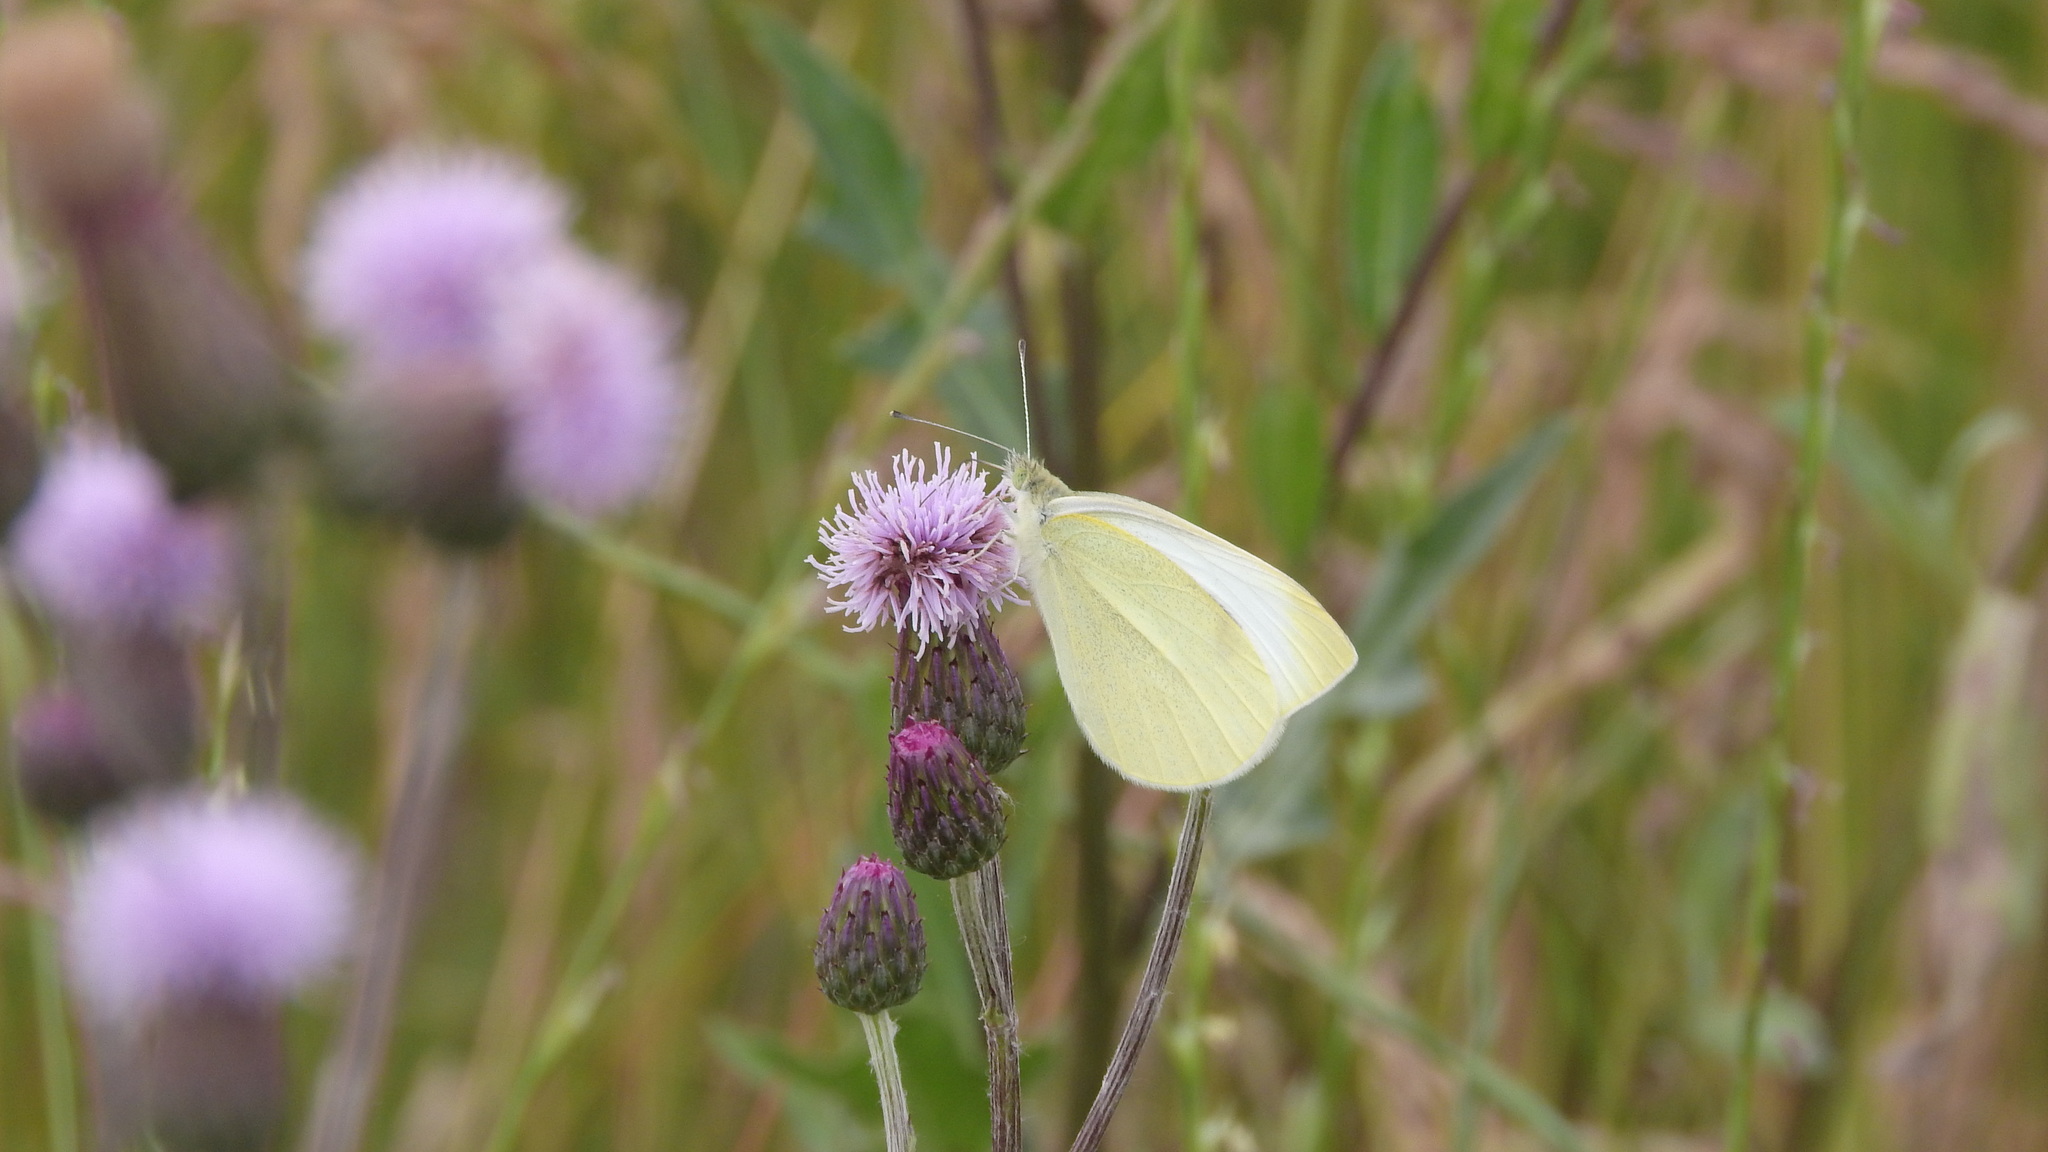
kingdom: Animalia
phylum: Arthropoda
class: Insecta
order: Lepidoptera
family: Pieridae
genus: Pieris
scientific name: Pieris rapae
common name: Small white
